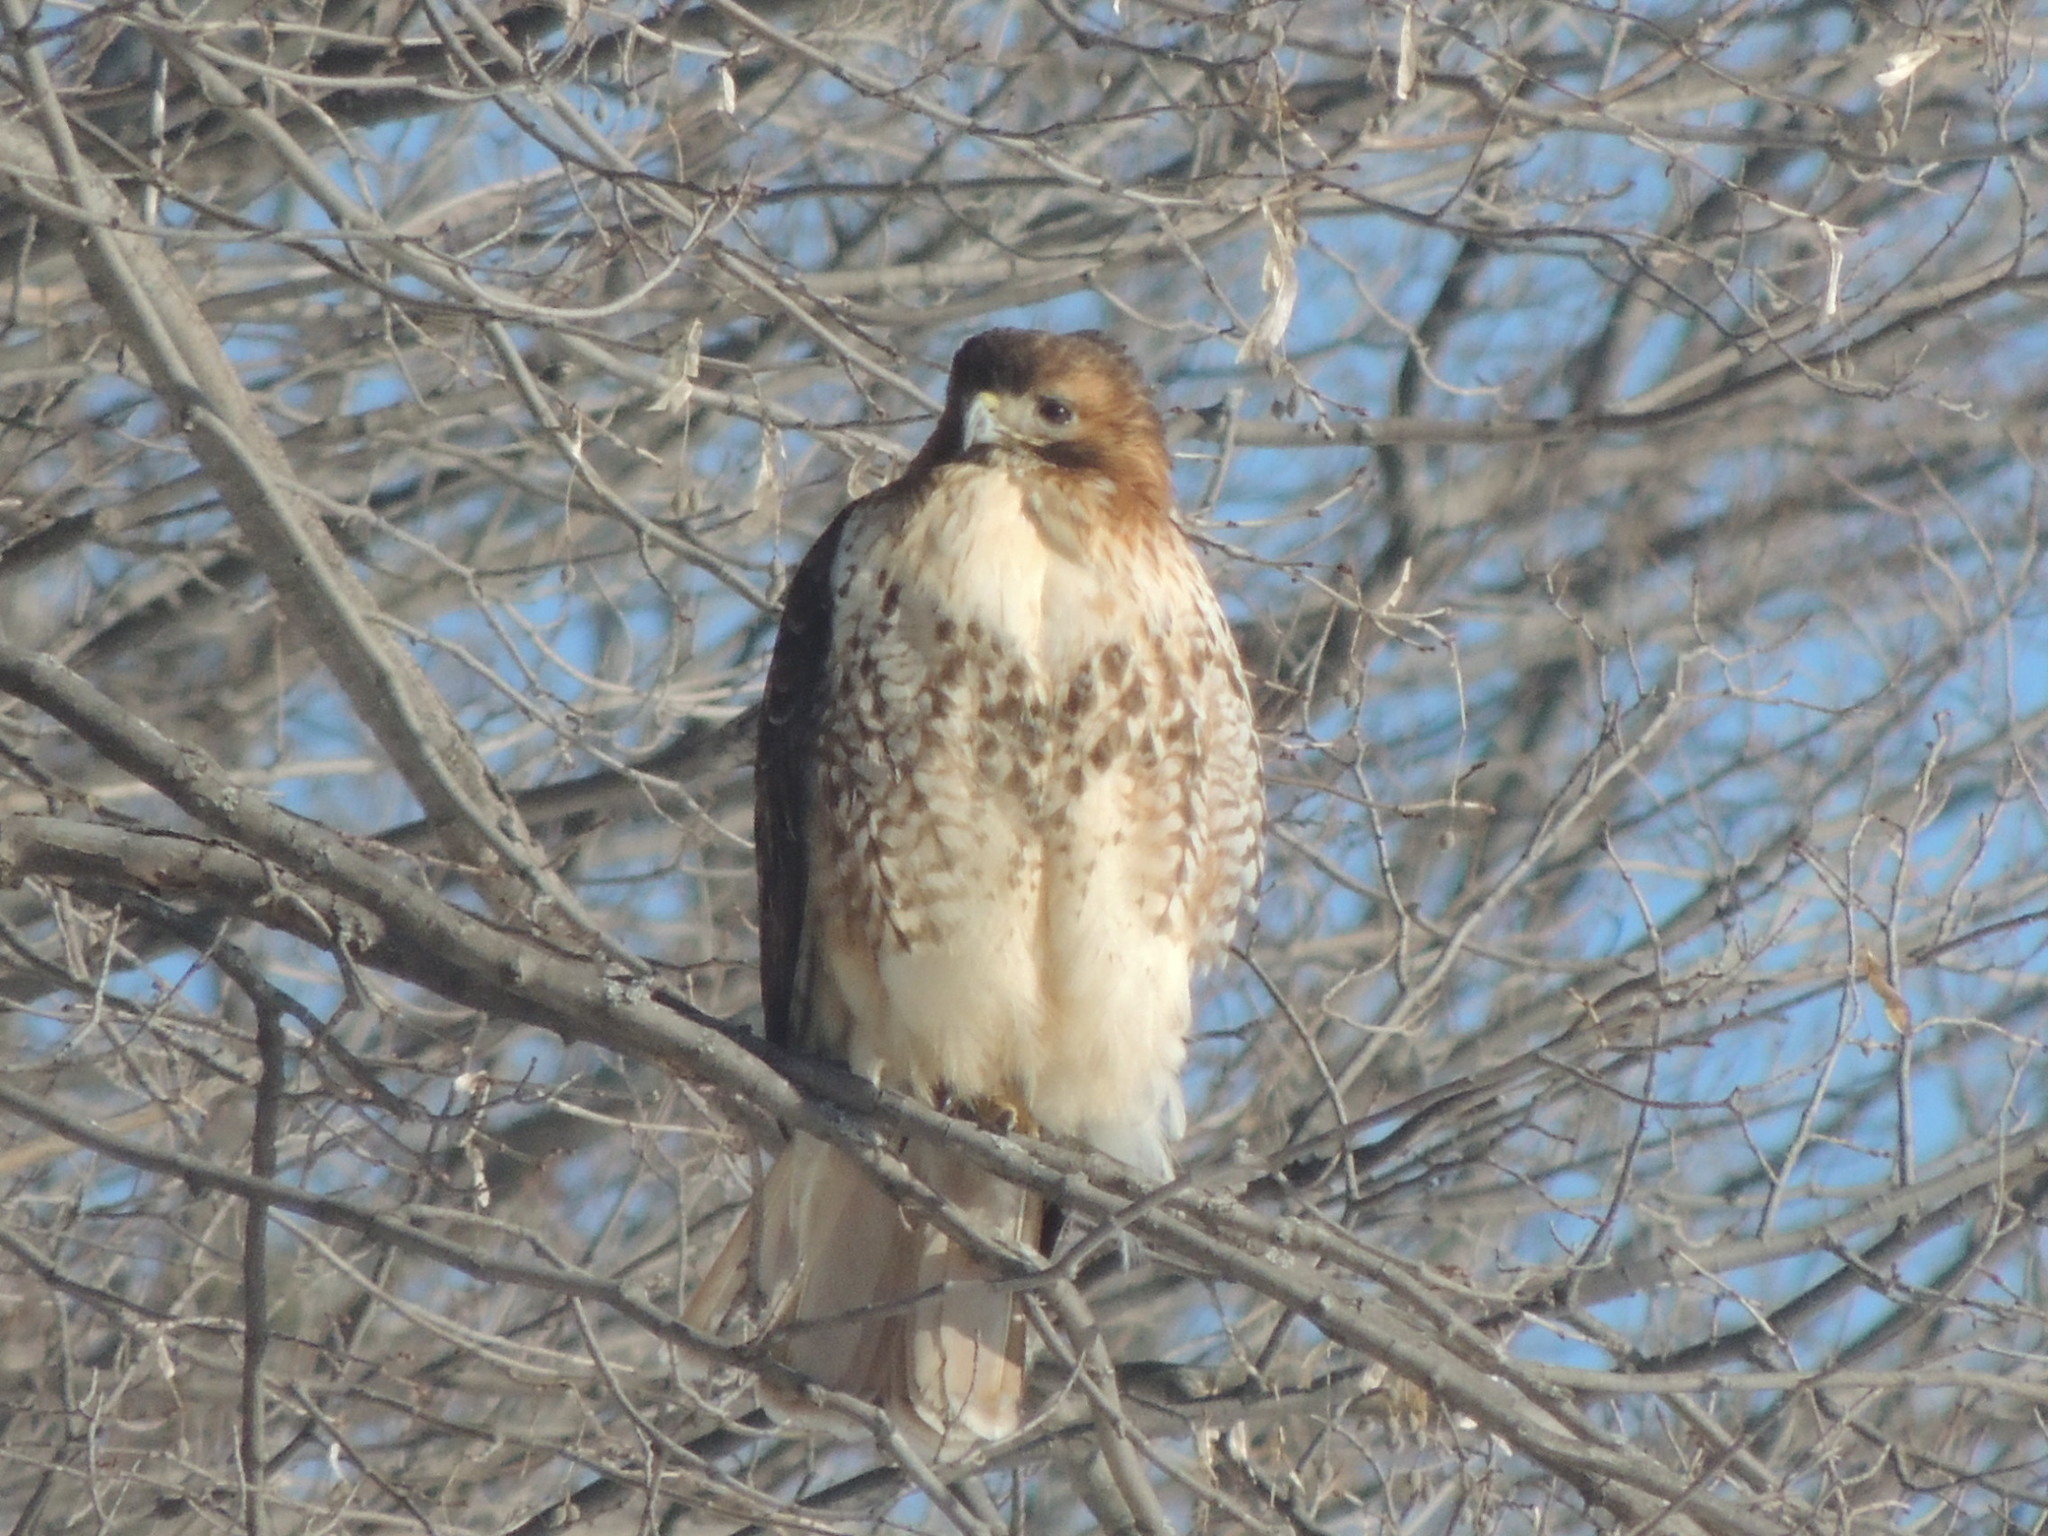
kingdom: Animalia
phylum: Chordata
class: Aves
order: Accipitriformes
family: Accipitridae
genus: Buteo
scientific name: Buteo jamaicensis
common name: Red-tailed hawk
